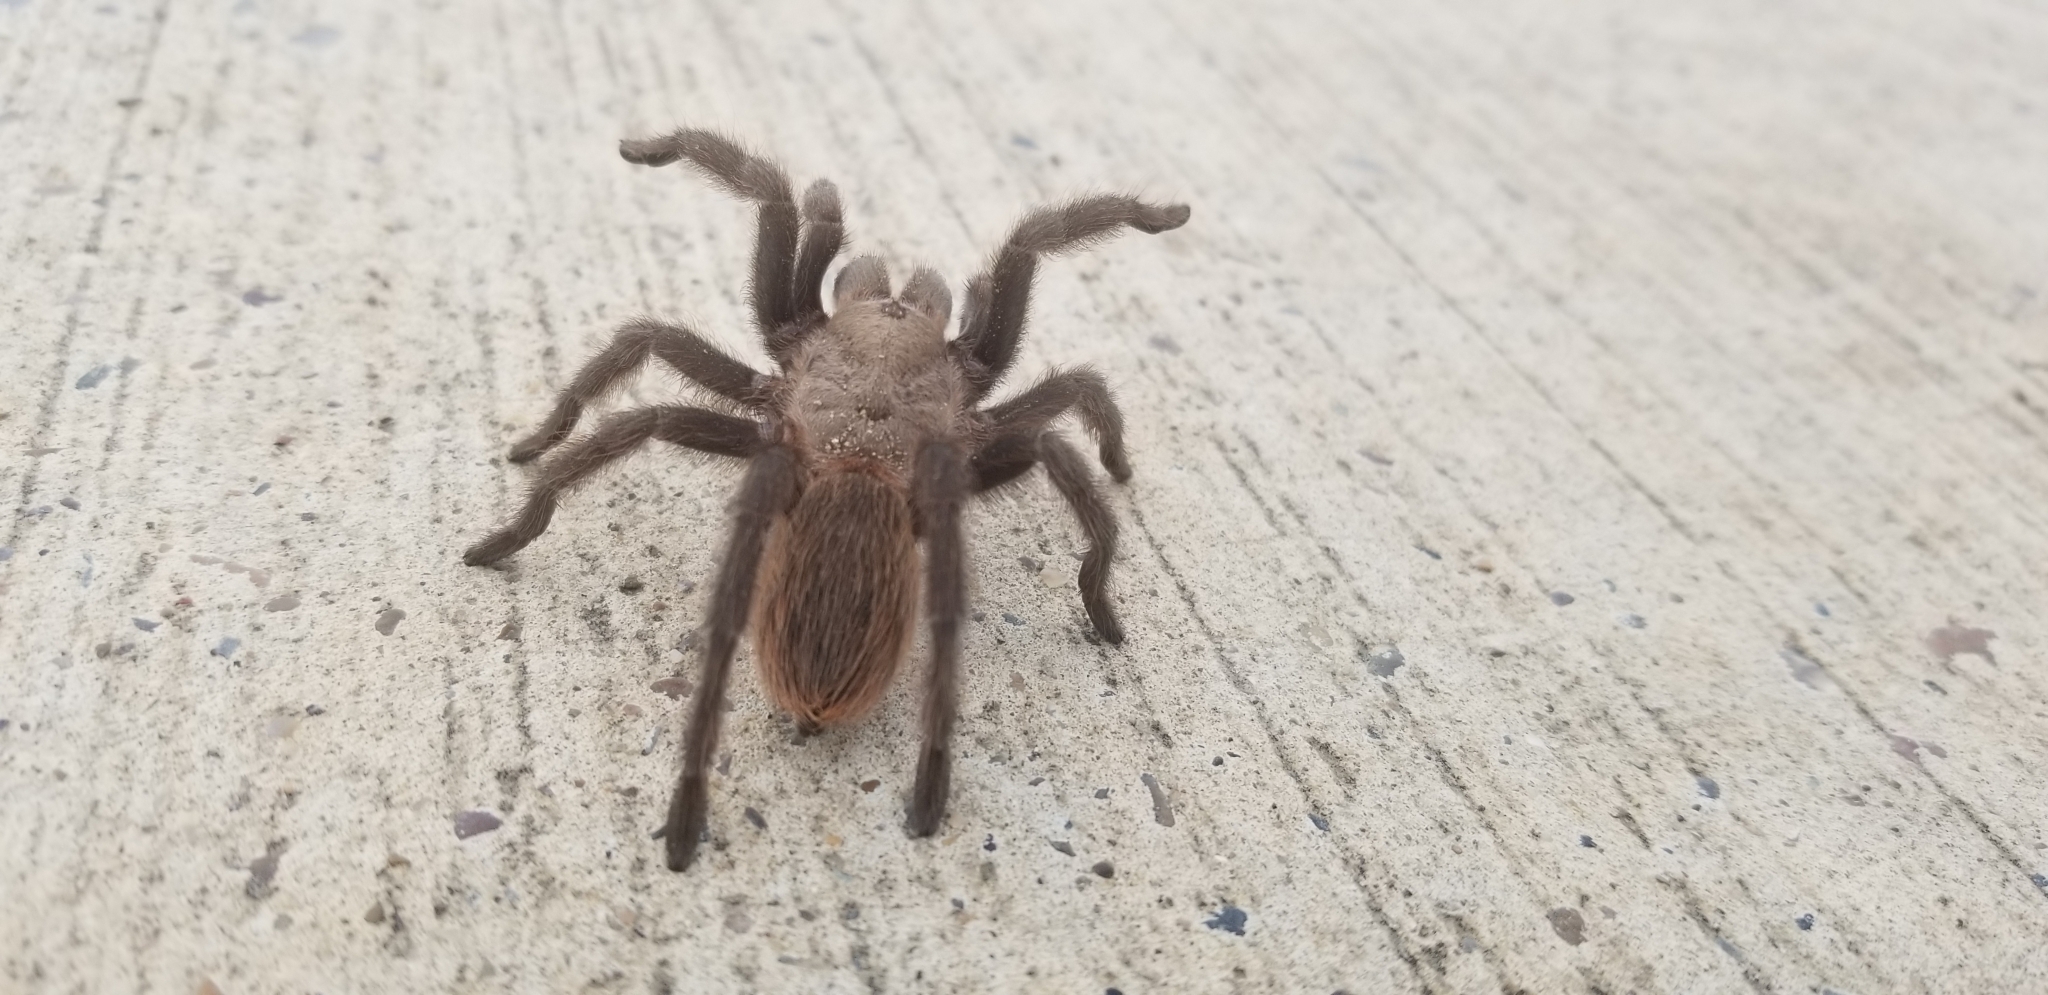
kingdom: Animalia
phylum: Arthropoda
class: Arachnida
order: Araneae
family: Theraphosidae
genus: Aphonopelma
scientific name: Aphonopelma anax
